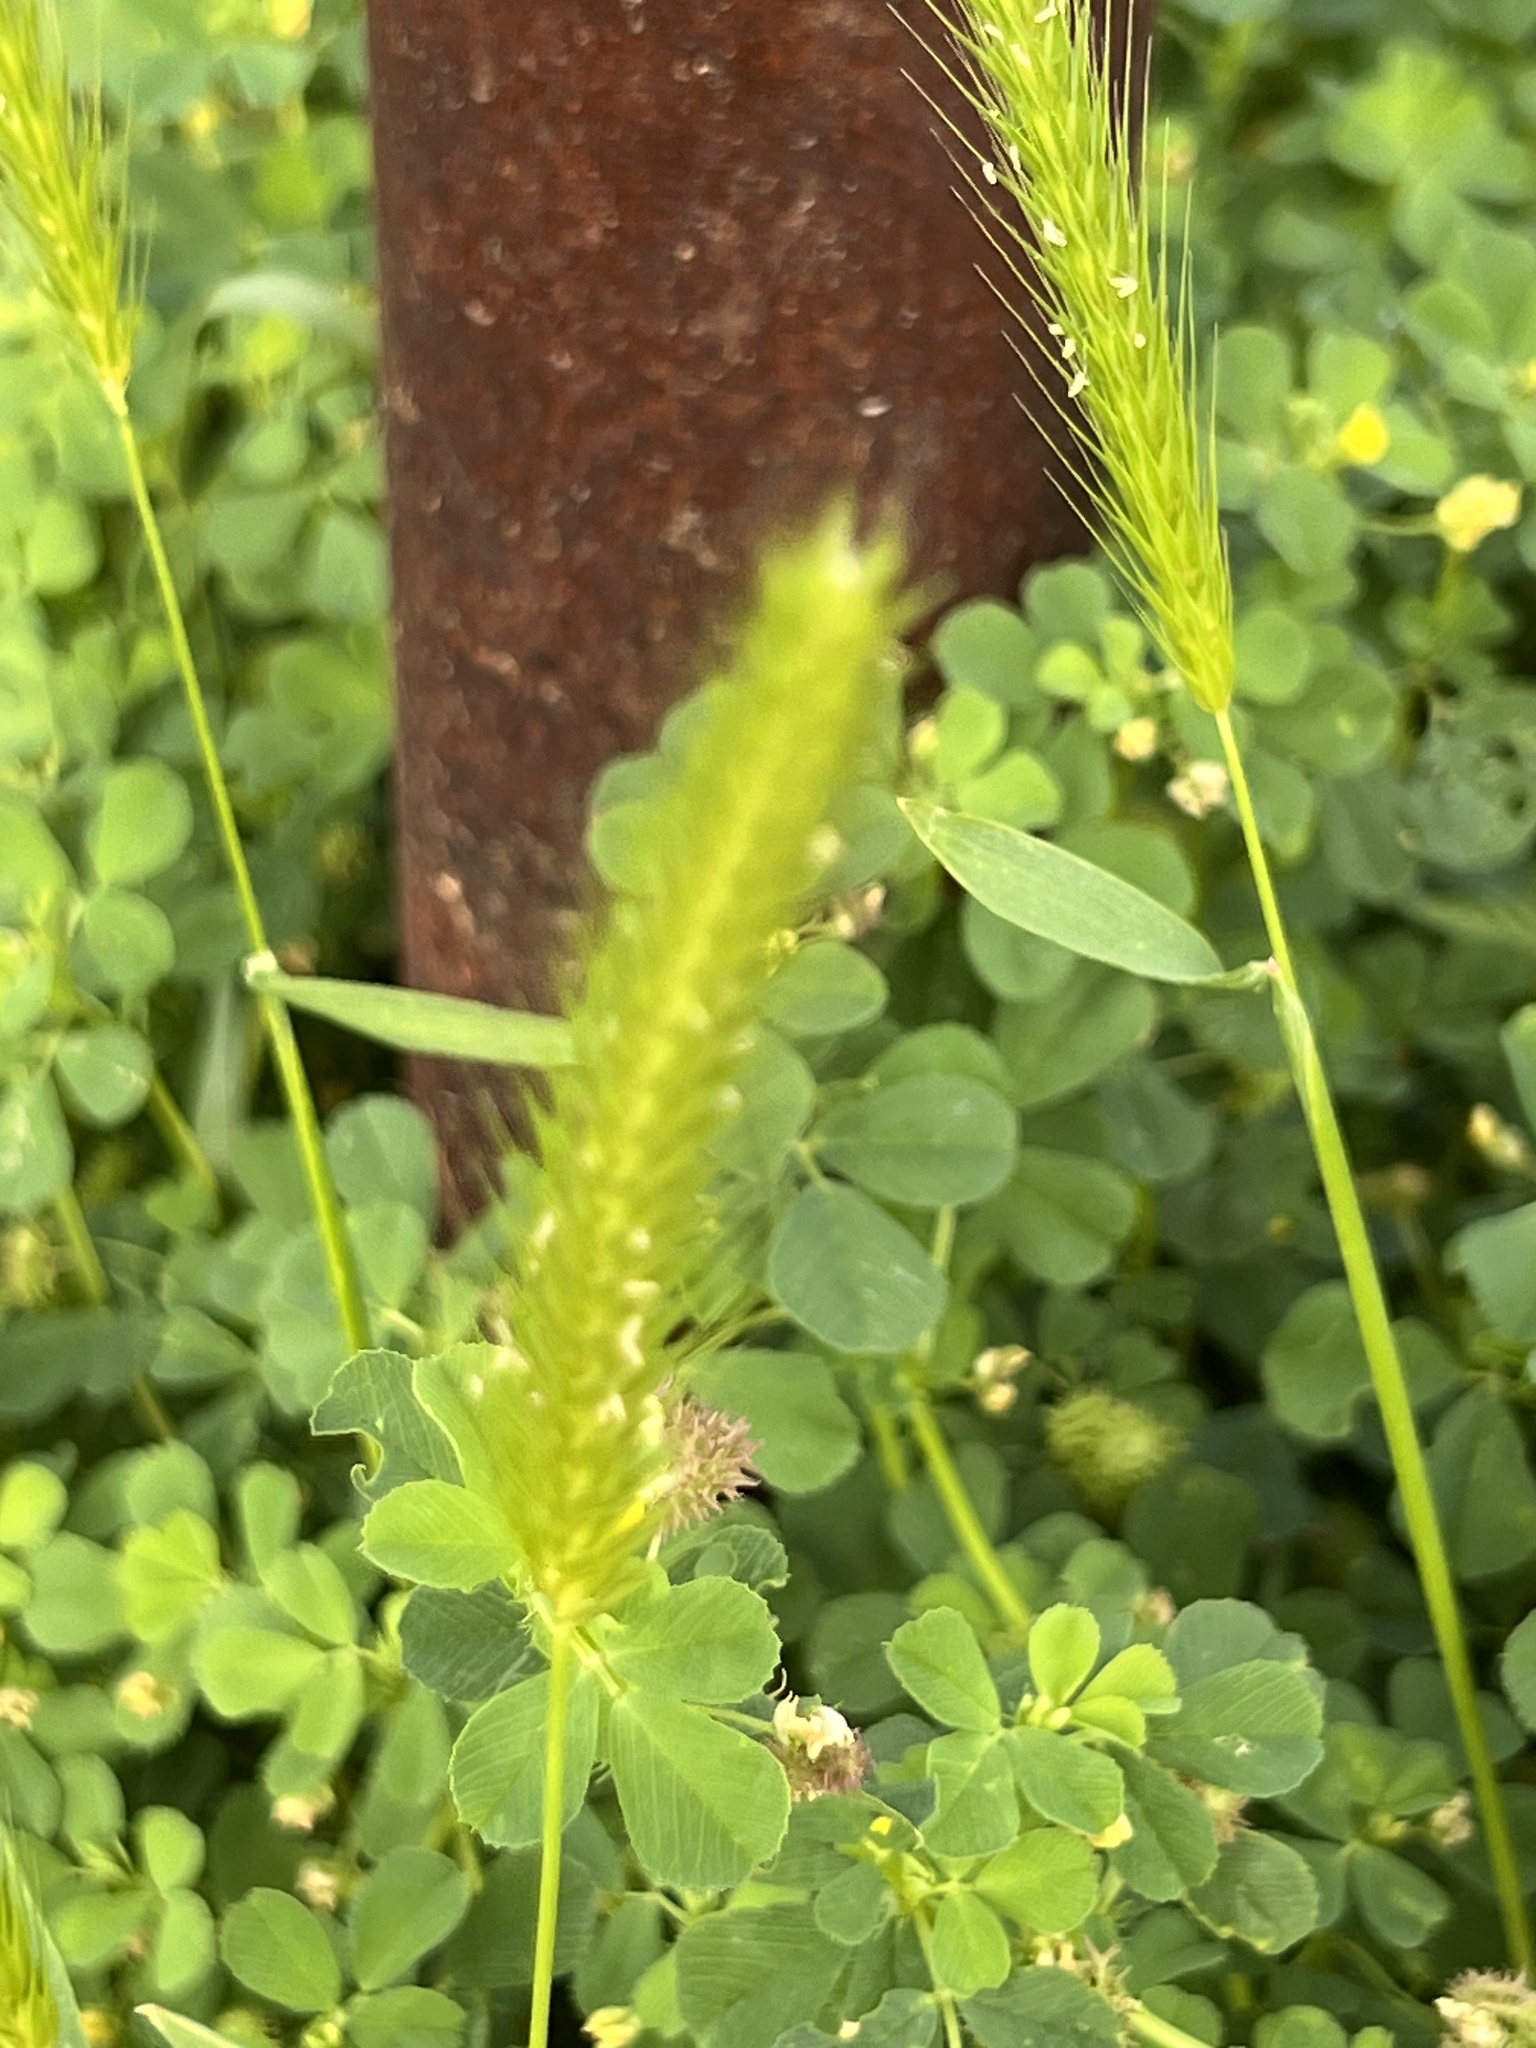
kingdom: Plantae
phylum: Tracheophyta
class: Liliopsida
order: Poales
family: Poaceae
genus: Hordeum
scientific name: Hordeum pusillum
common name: Little barley
